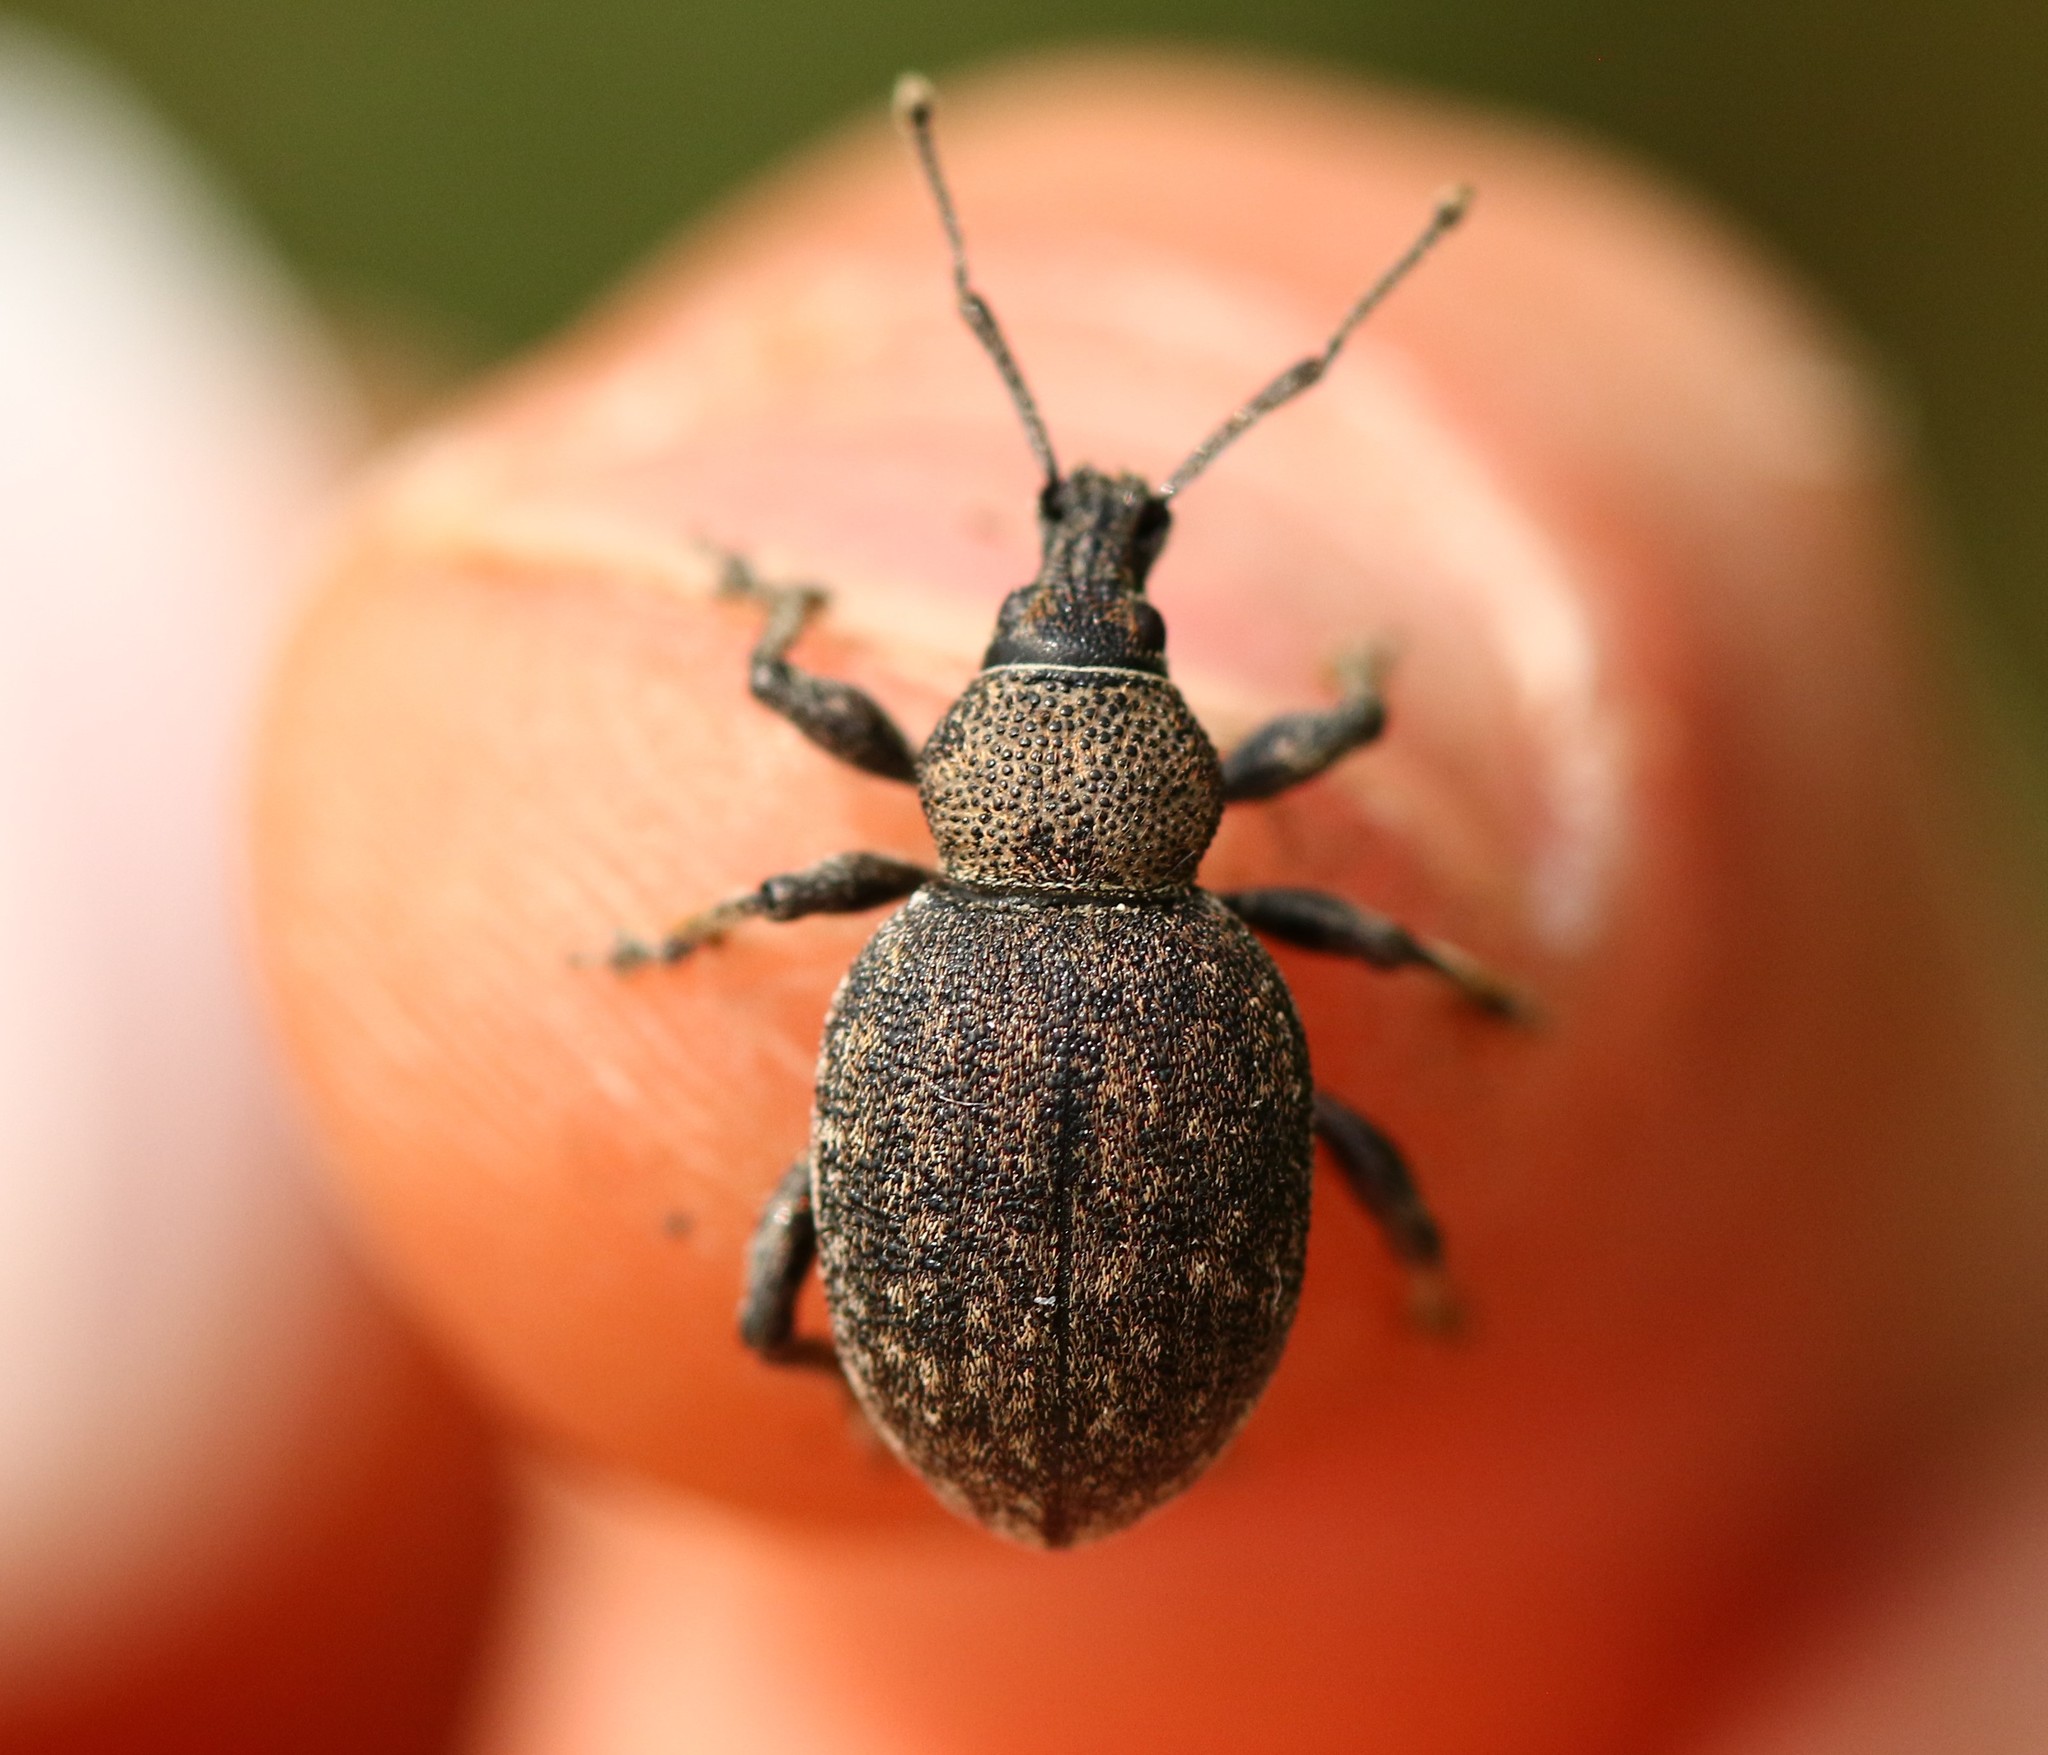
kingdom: Animalia
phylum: Arthropoda
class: Insecta
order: Coleoptera
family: Curculionidae
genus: Otiorhynchus
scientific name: Otiorhynchus ligustici
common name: Weevil
